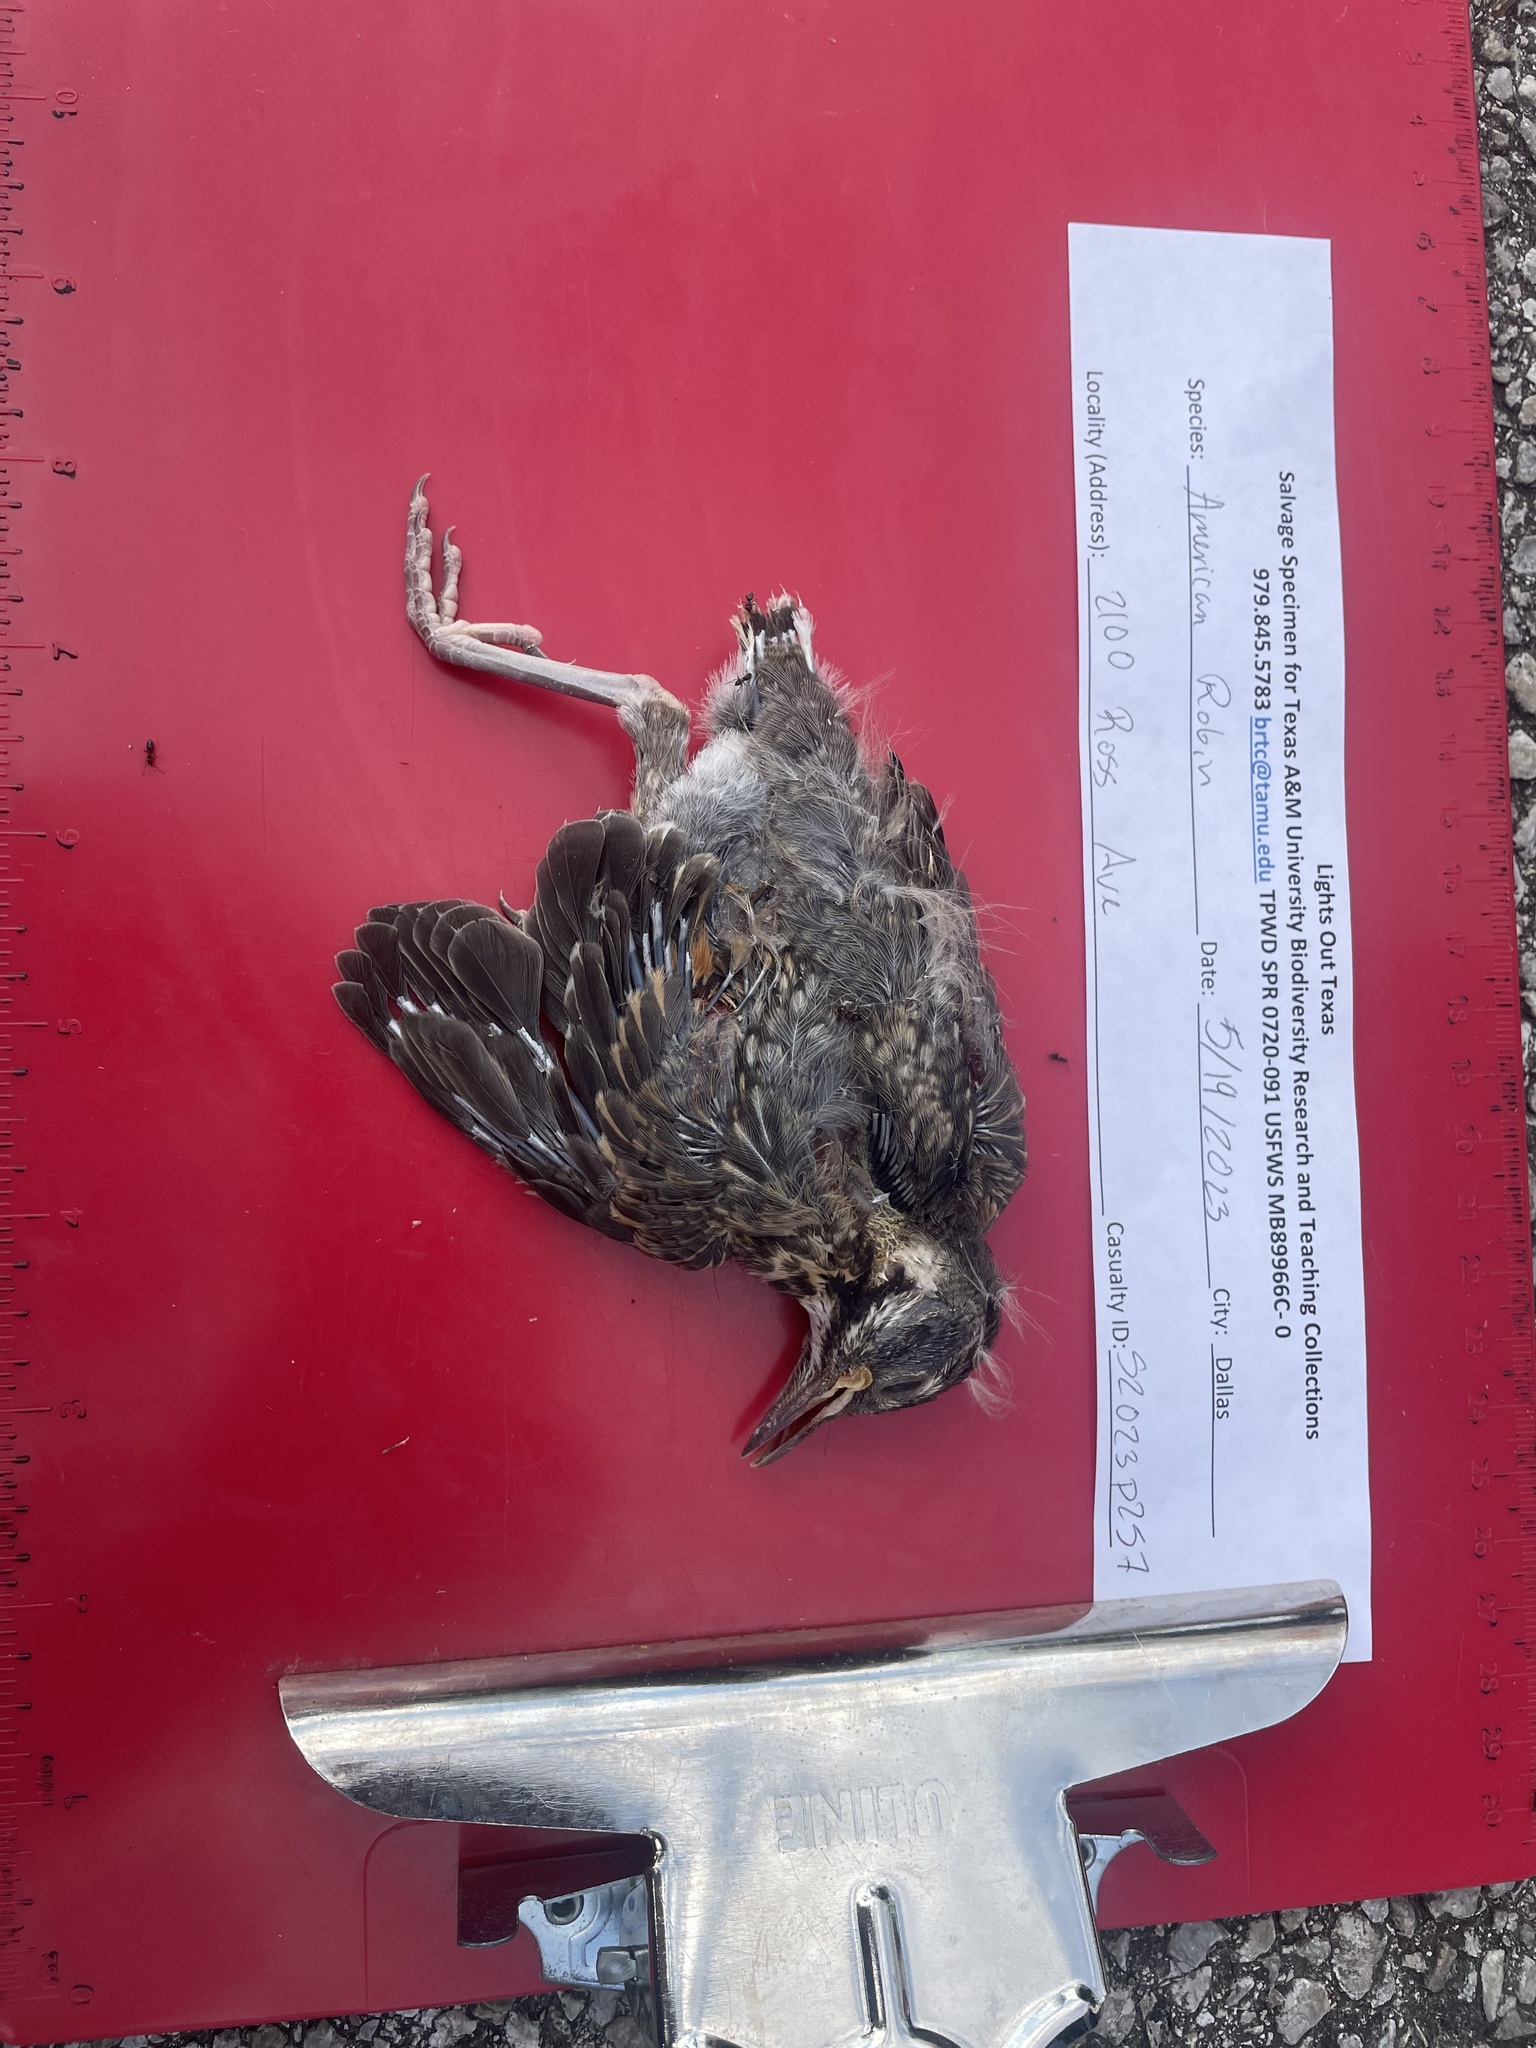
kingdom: Animalia
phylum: Chordata
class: Aves
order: Passeriformes
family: Turdidae
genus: Turdus
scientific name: Turdus migratorius
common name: American robin
